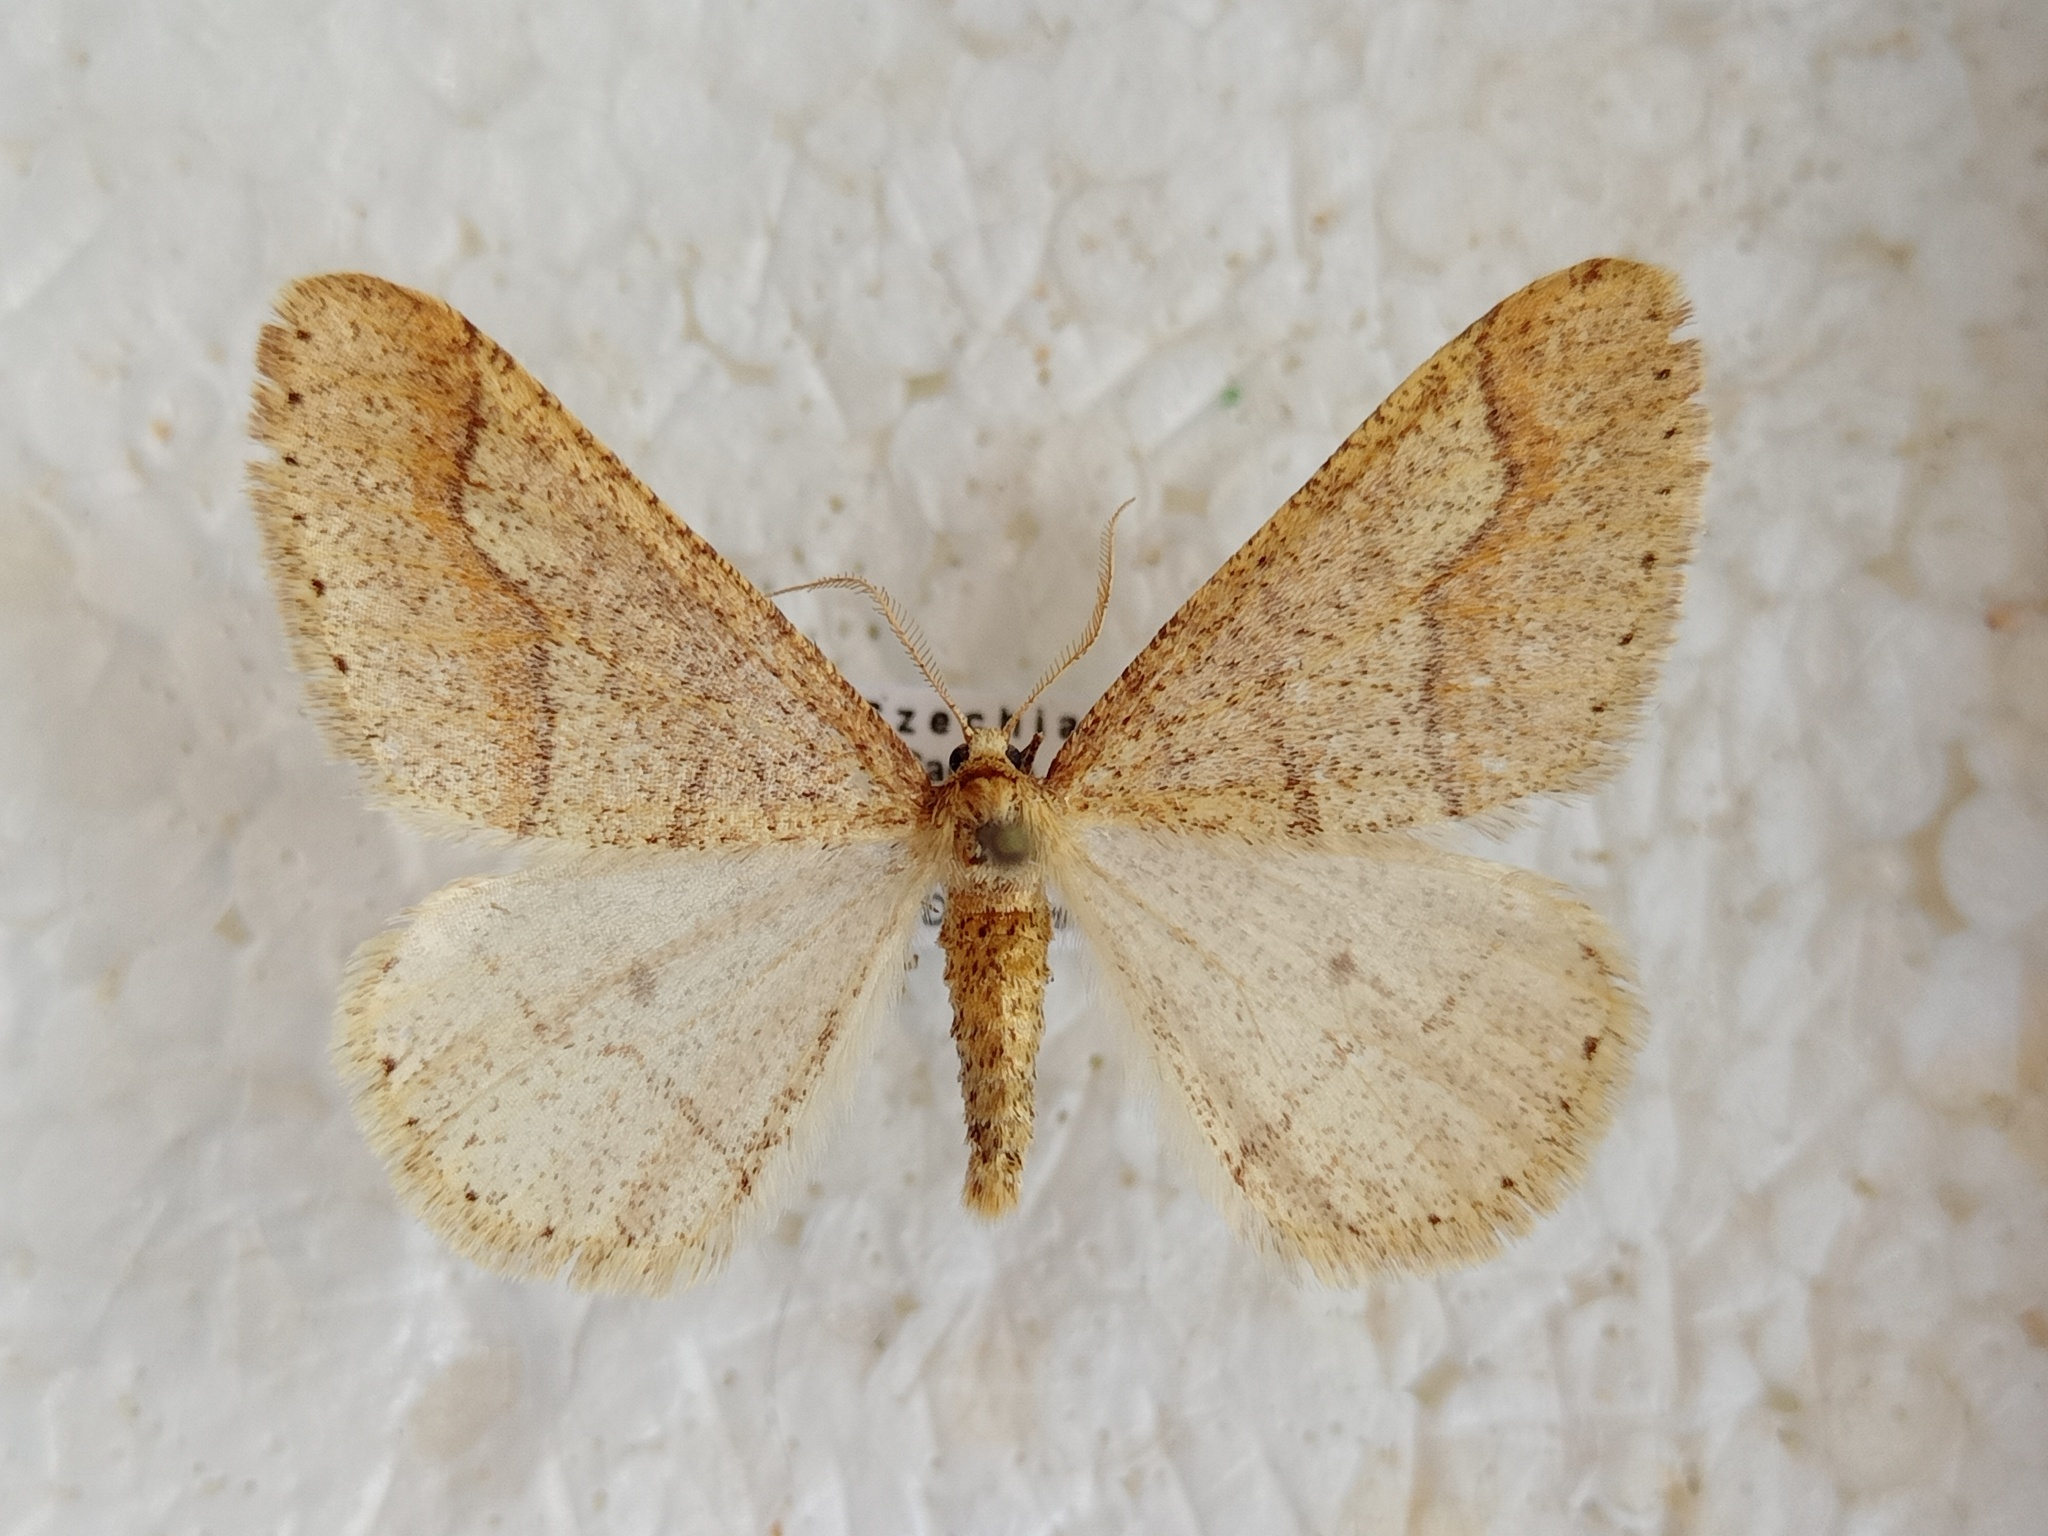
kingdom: Animalia
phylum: Arthropoda
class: Insecta
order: Lepidoptera
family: Geometridae
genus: Agriopis
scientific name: Agriopis marginaria
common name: Dotted border
